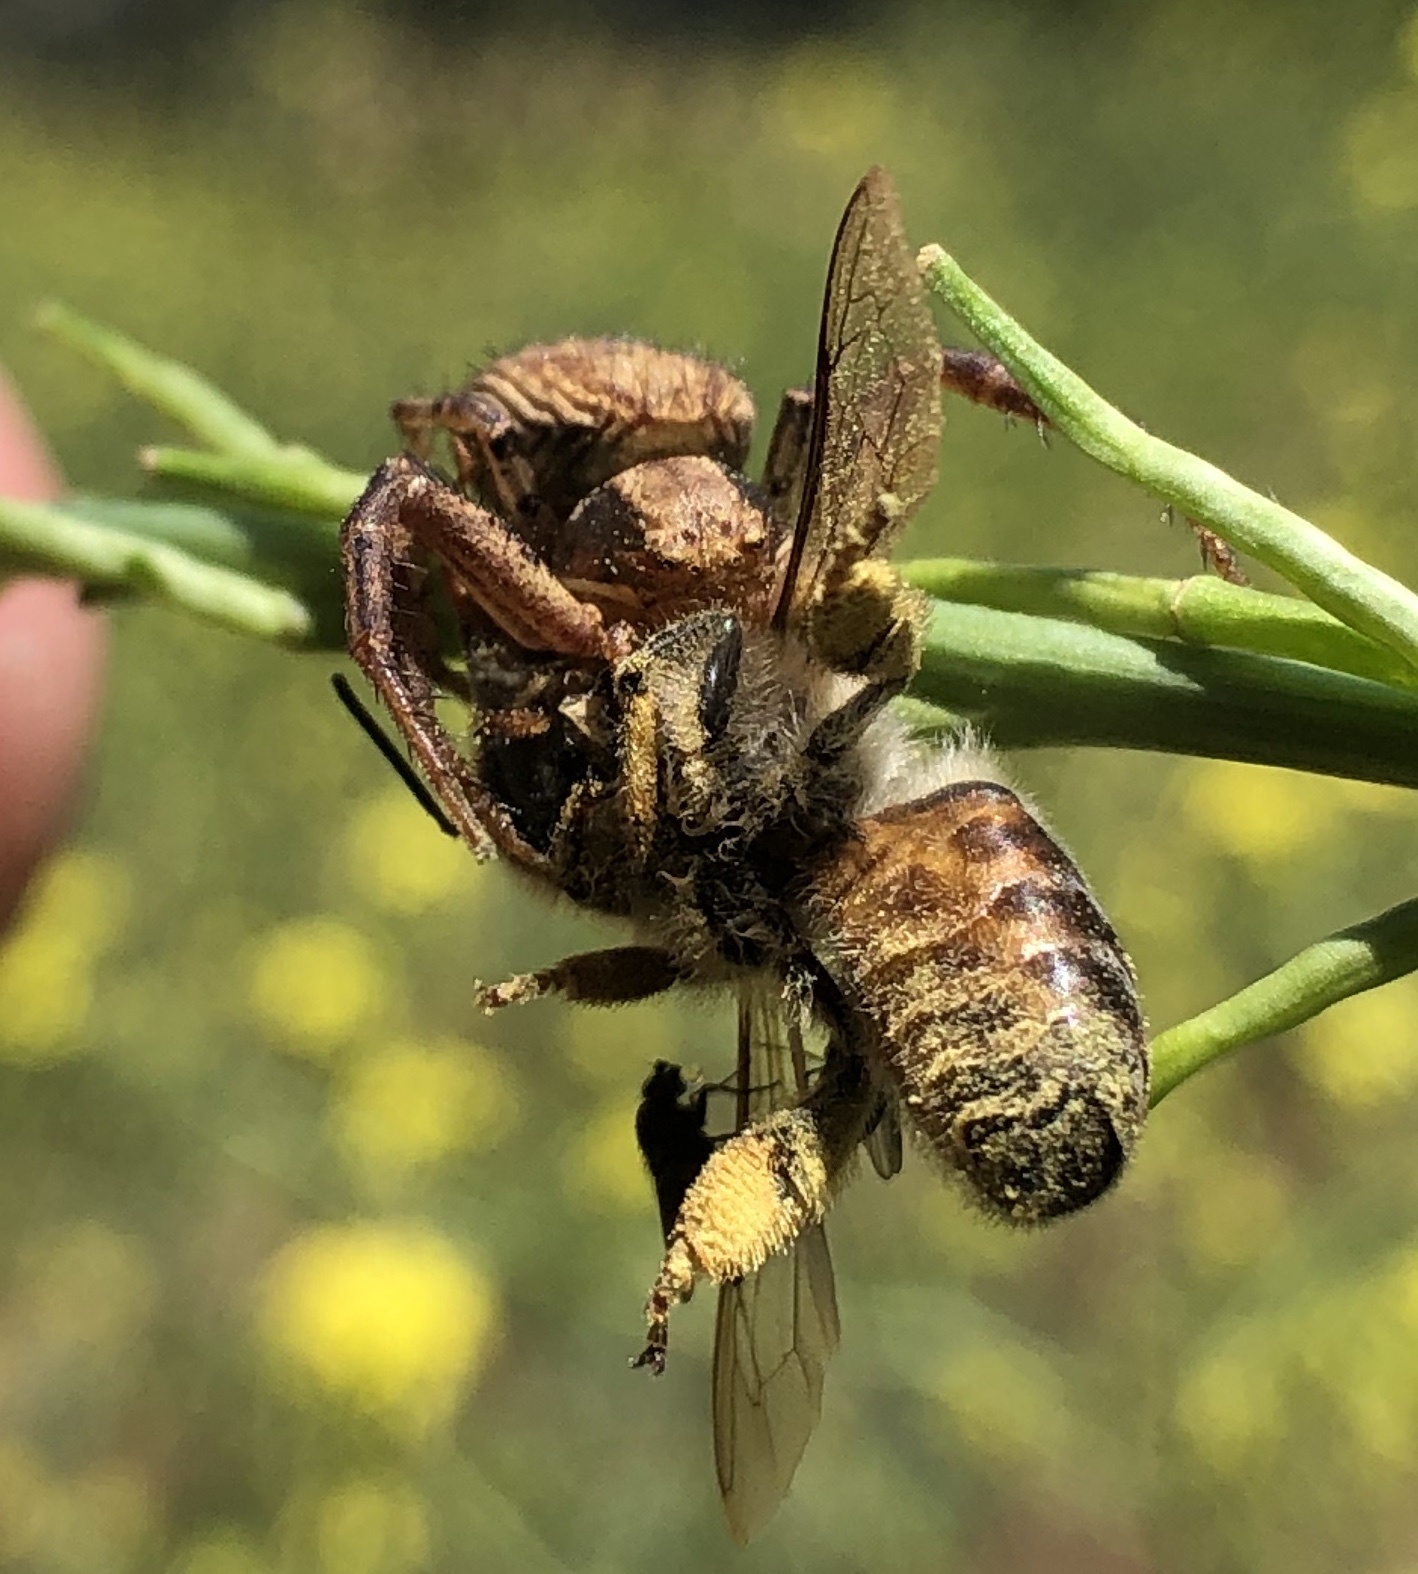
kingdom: Animalia
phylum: Arthropoda
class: Insecta
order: Hymenoptera
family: Apidae
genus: Apis
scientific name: Apis mellifera
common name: Honey bee
